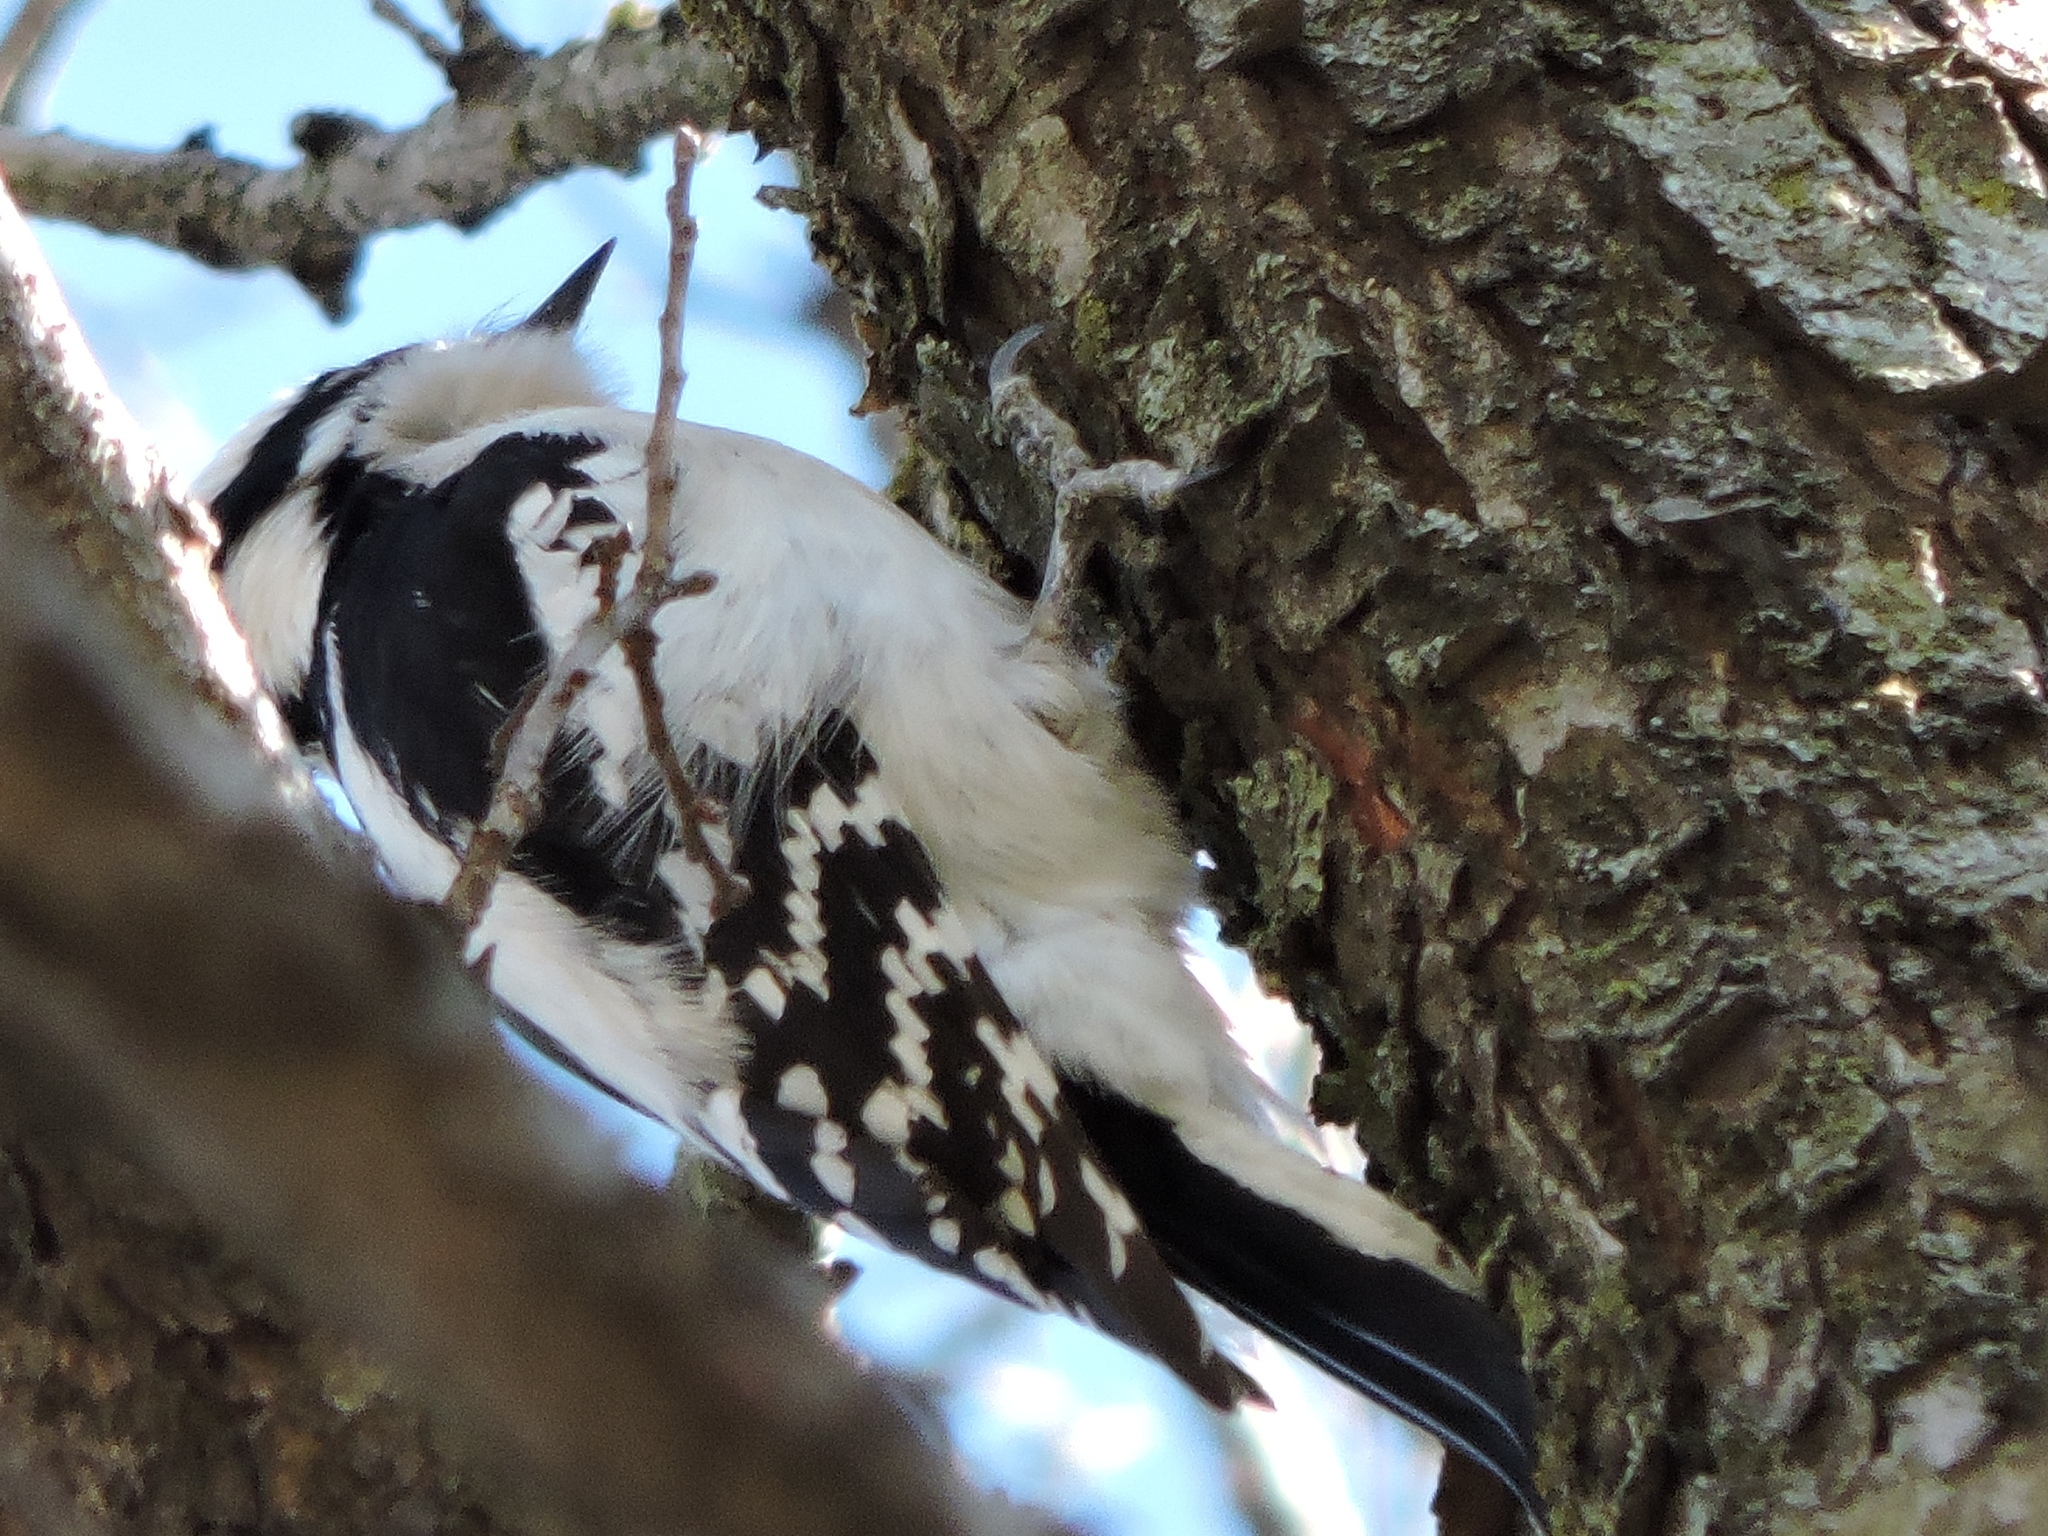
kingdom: Animalia
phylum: Chordata
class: Aves
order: Piciformes
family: Picidae
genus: Dryobates
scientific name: Dryobates pubescens
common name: Downy woodpecker
